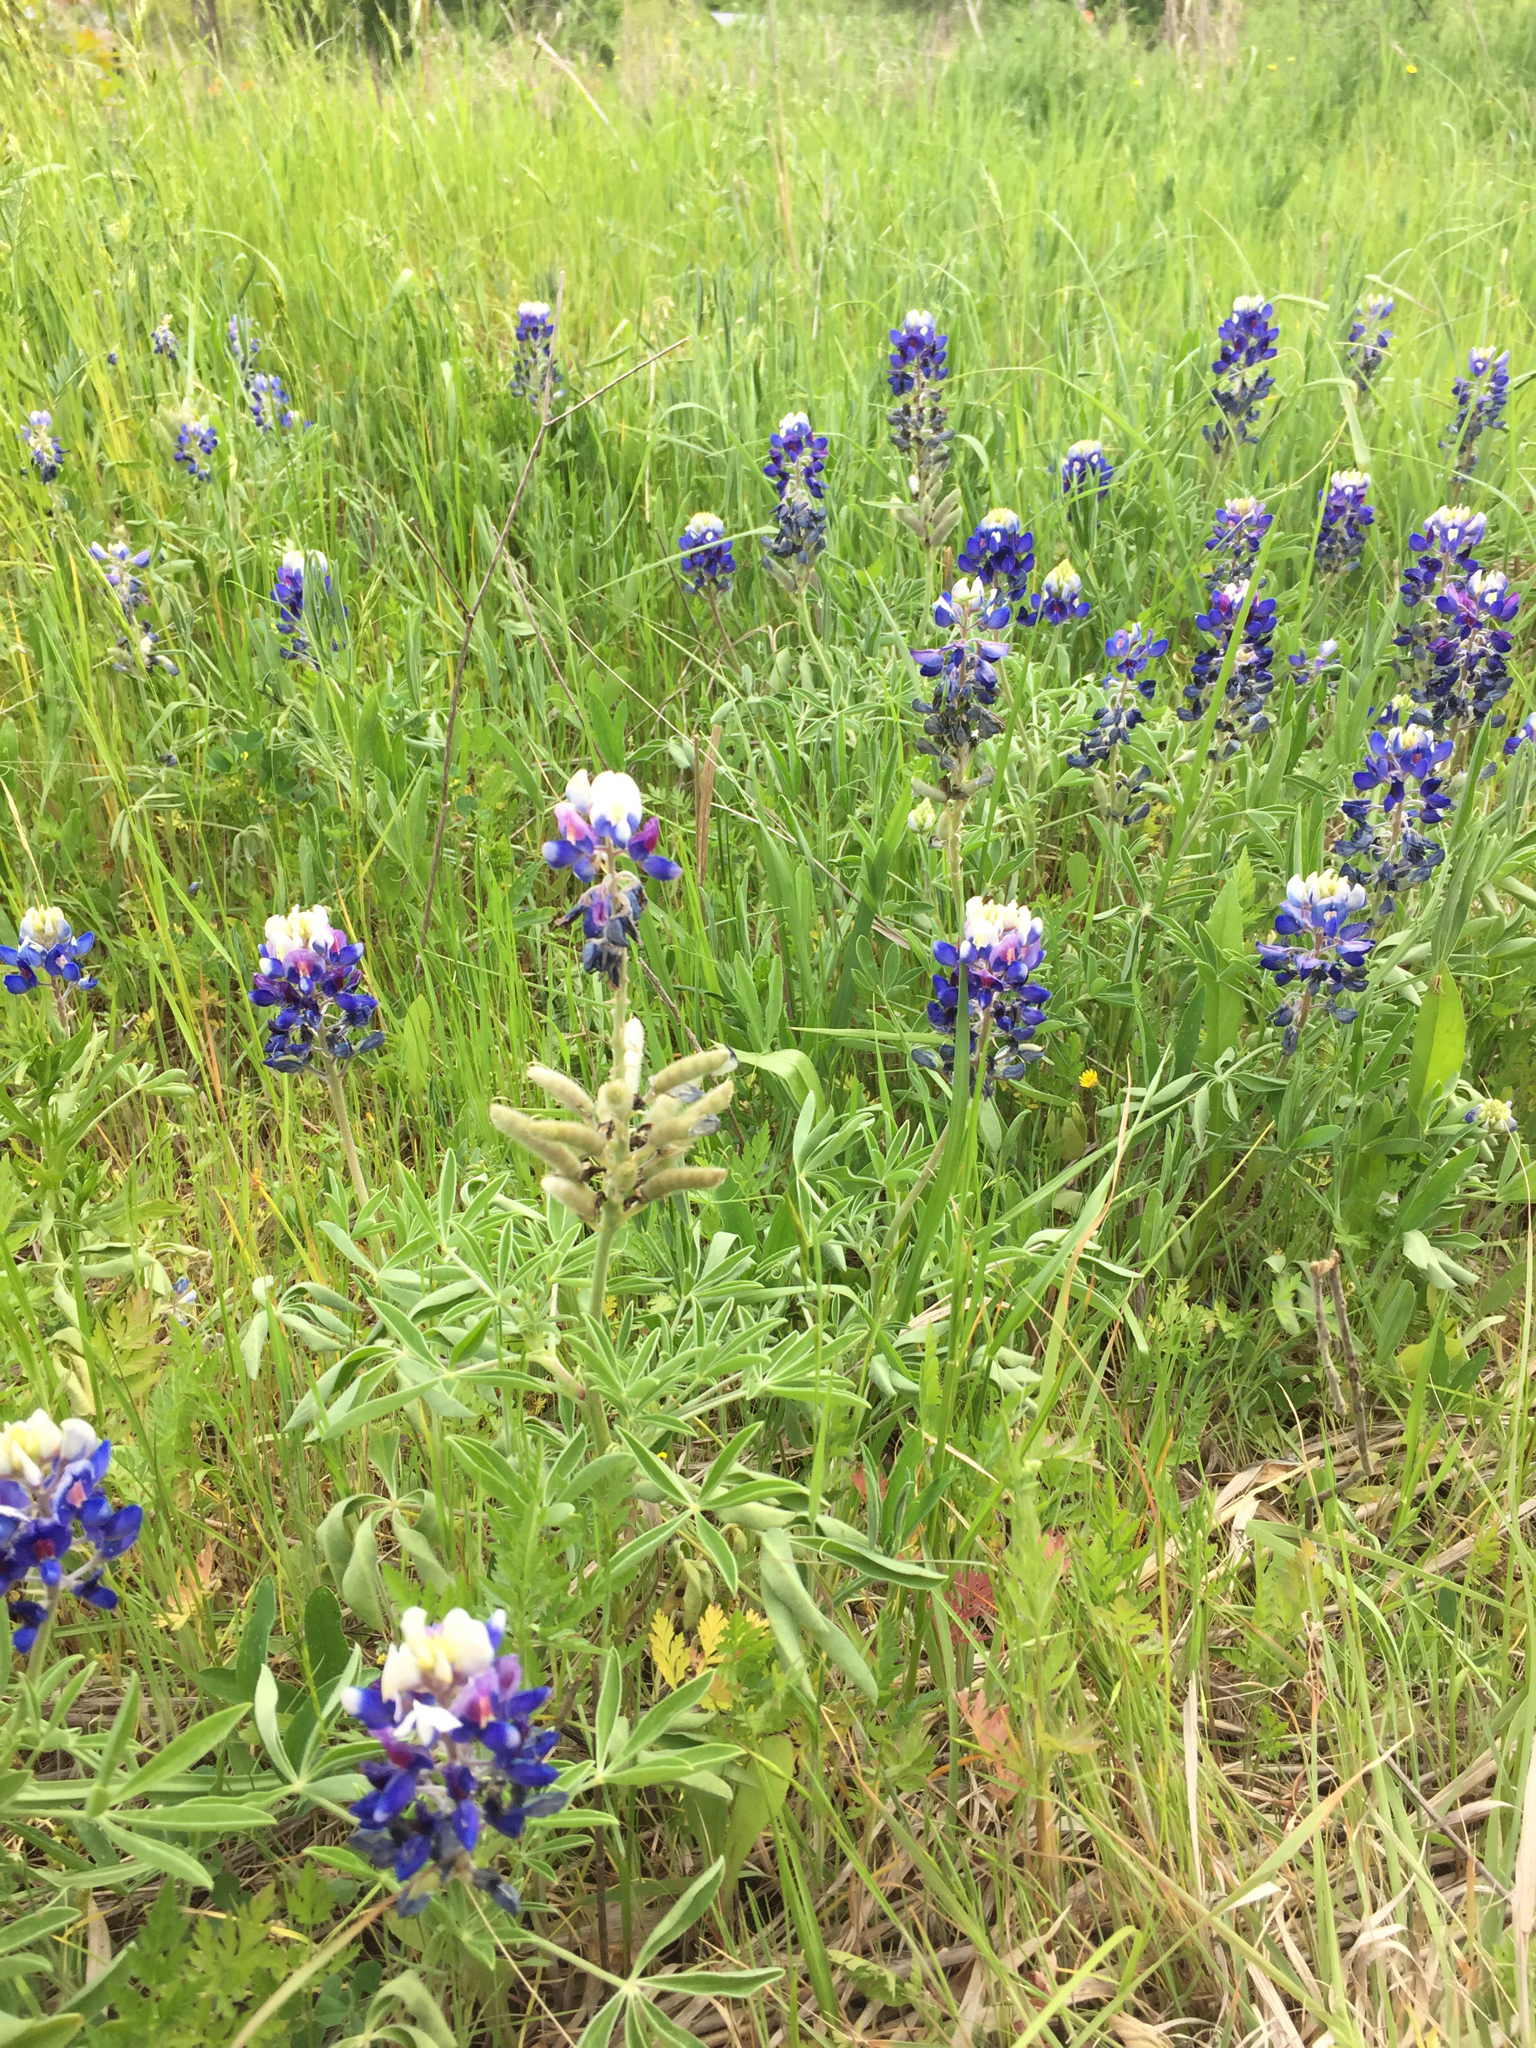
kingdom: Plantae
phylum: Tracheophyta
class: Magnoliopsida
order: Fabales
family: Fabaceae
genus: Lupinus
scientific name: Lupinus texensis
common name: Texas bluebonnet
